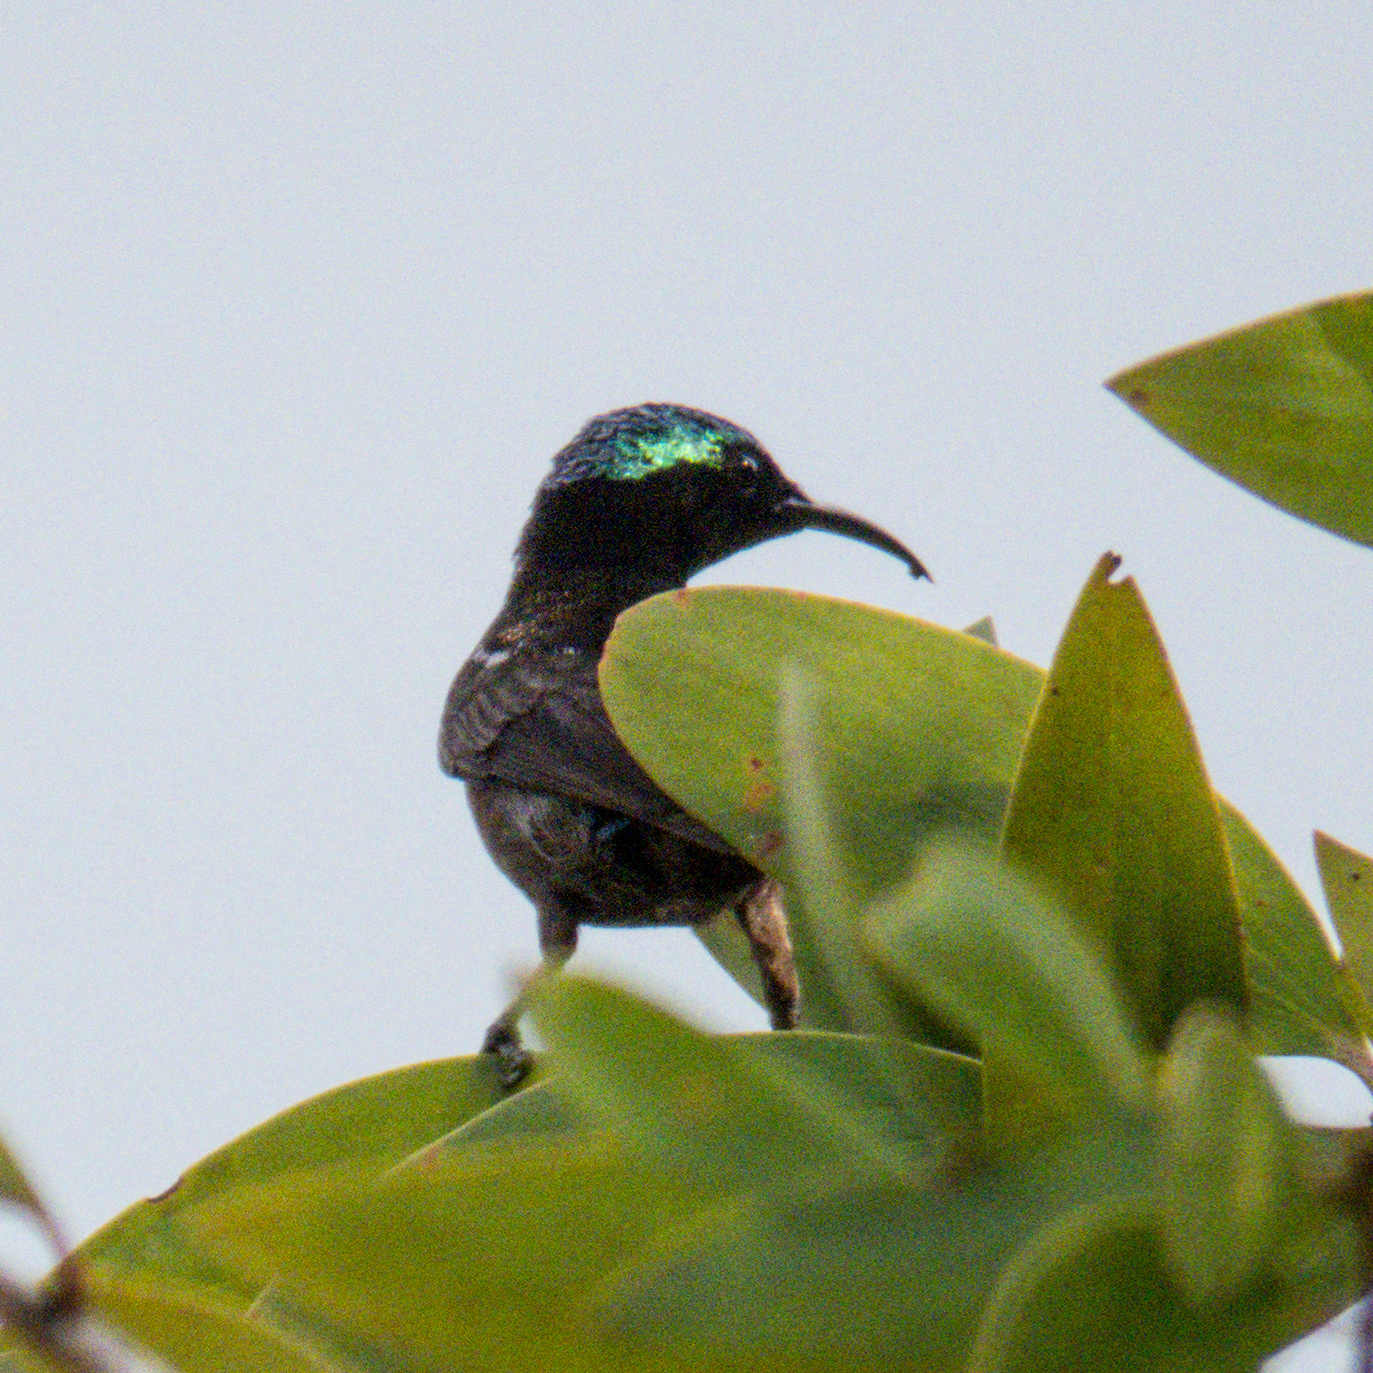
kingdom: Animalia
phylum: Chordata
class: Aves
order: Passeriformes
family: Nectariniidae
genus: Leptocoma
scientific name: Leptocoma brasiliana
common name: Van hasselt's sunbird
